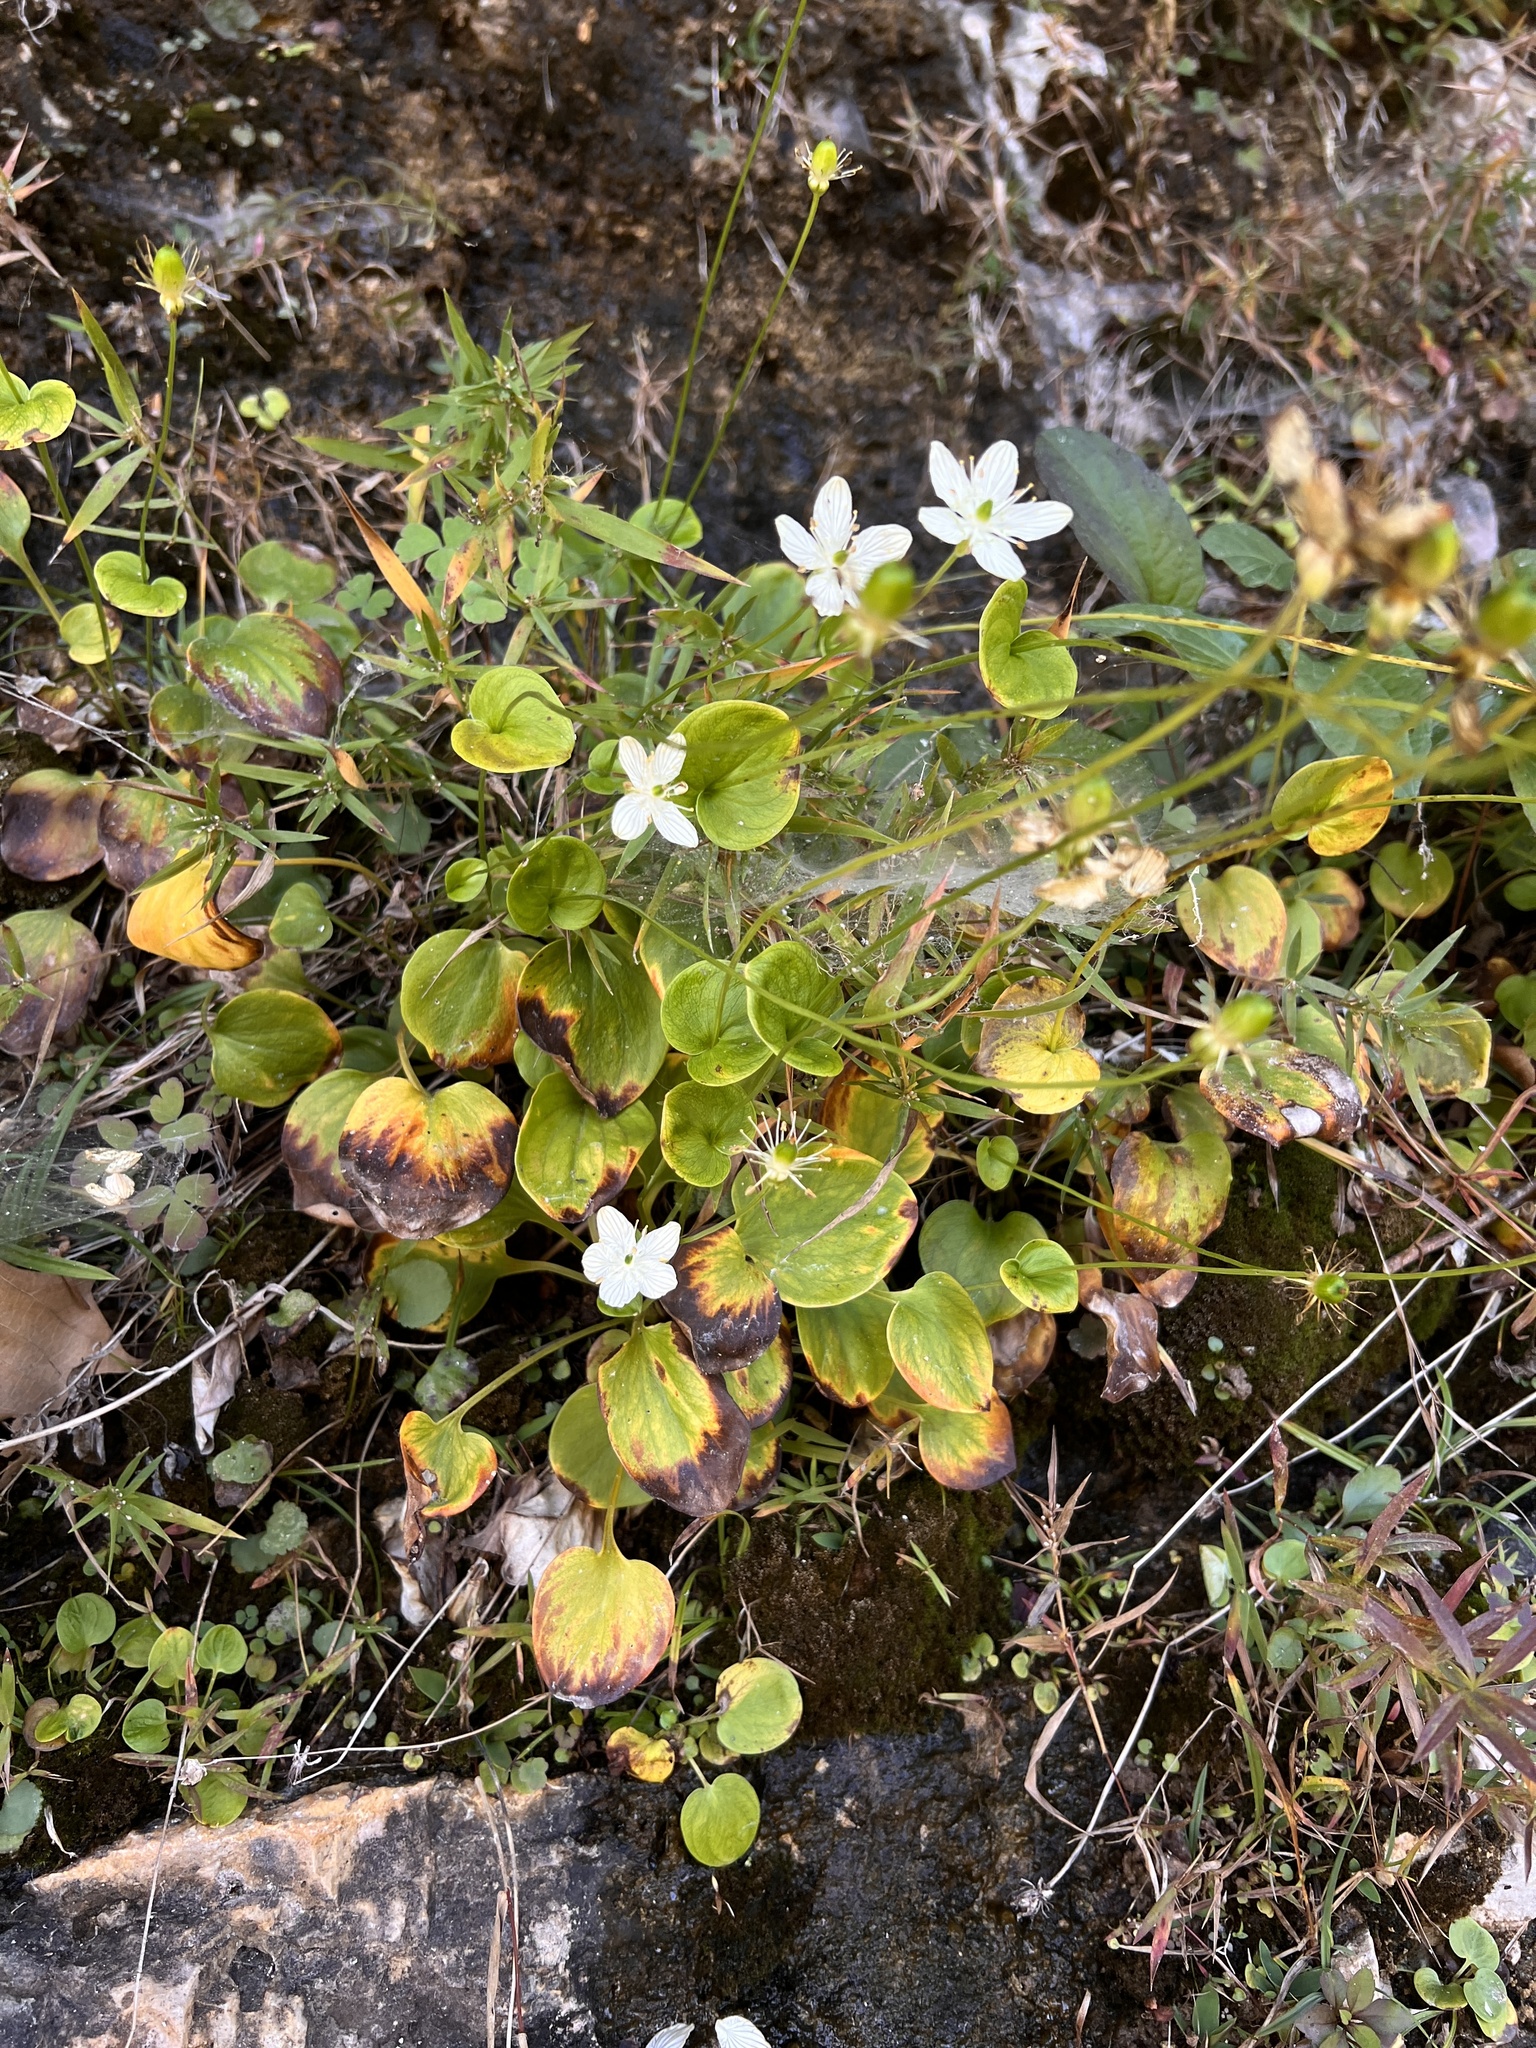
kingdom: Plantae
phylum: Tracheophyta
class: Magnoliopsida
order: Celastrales
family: Parnassiaceae
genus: Parnassia
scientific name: Parnassia grandifolia
